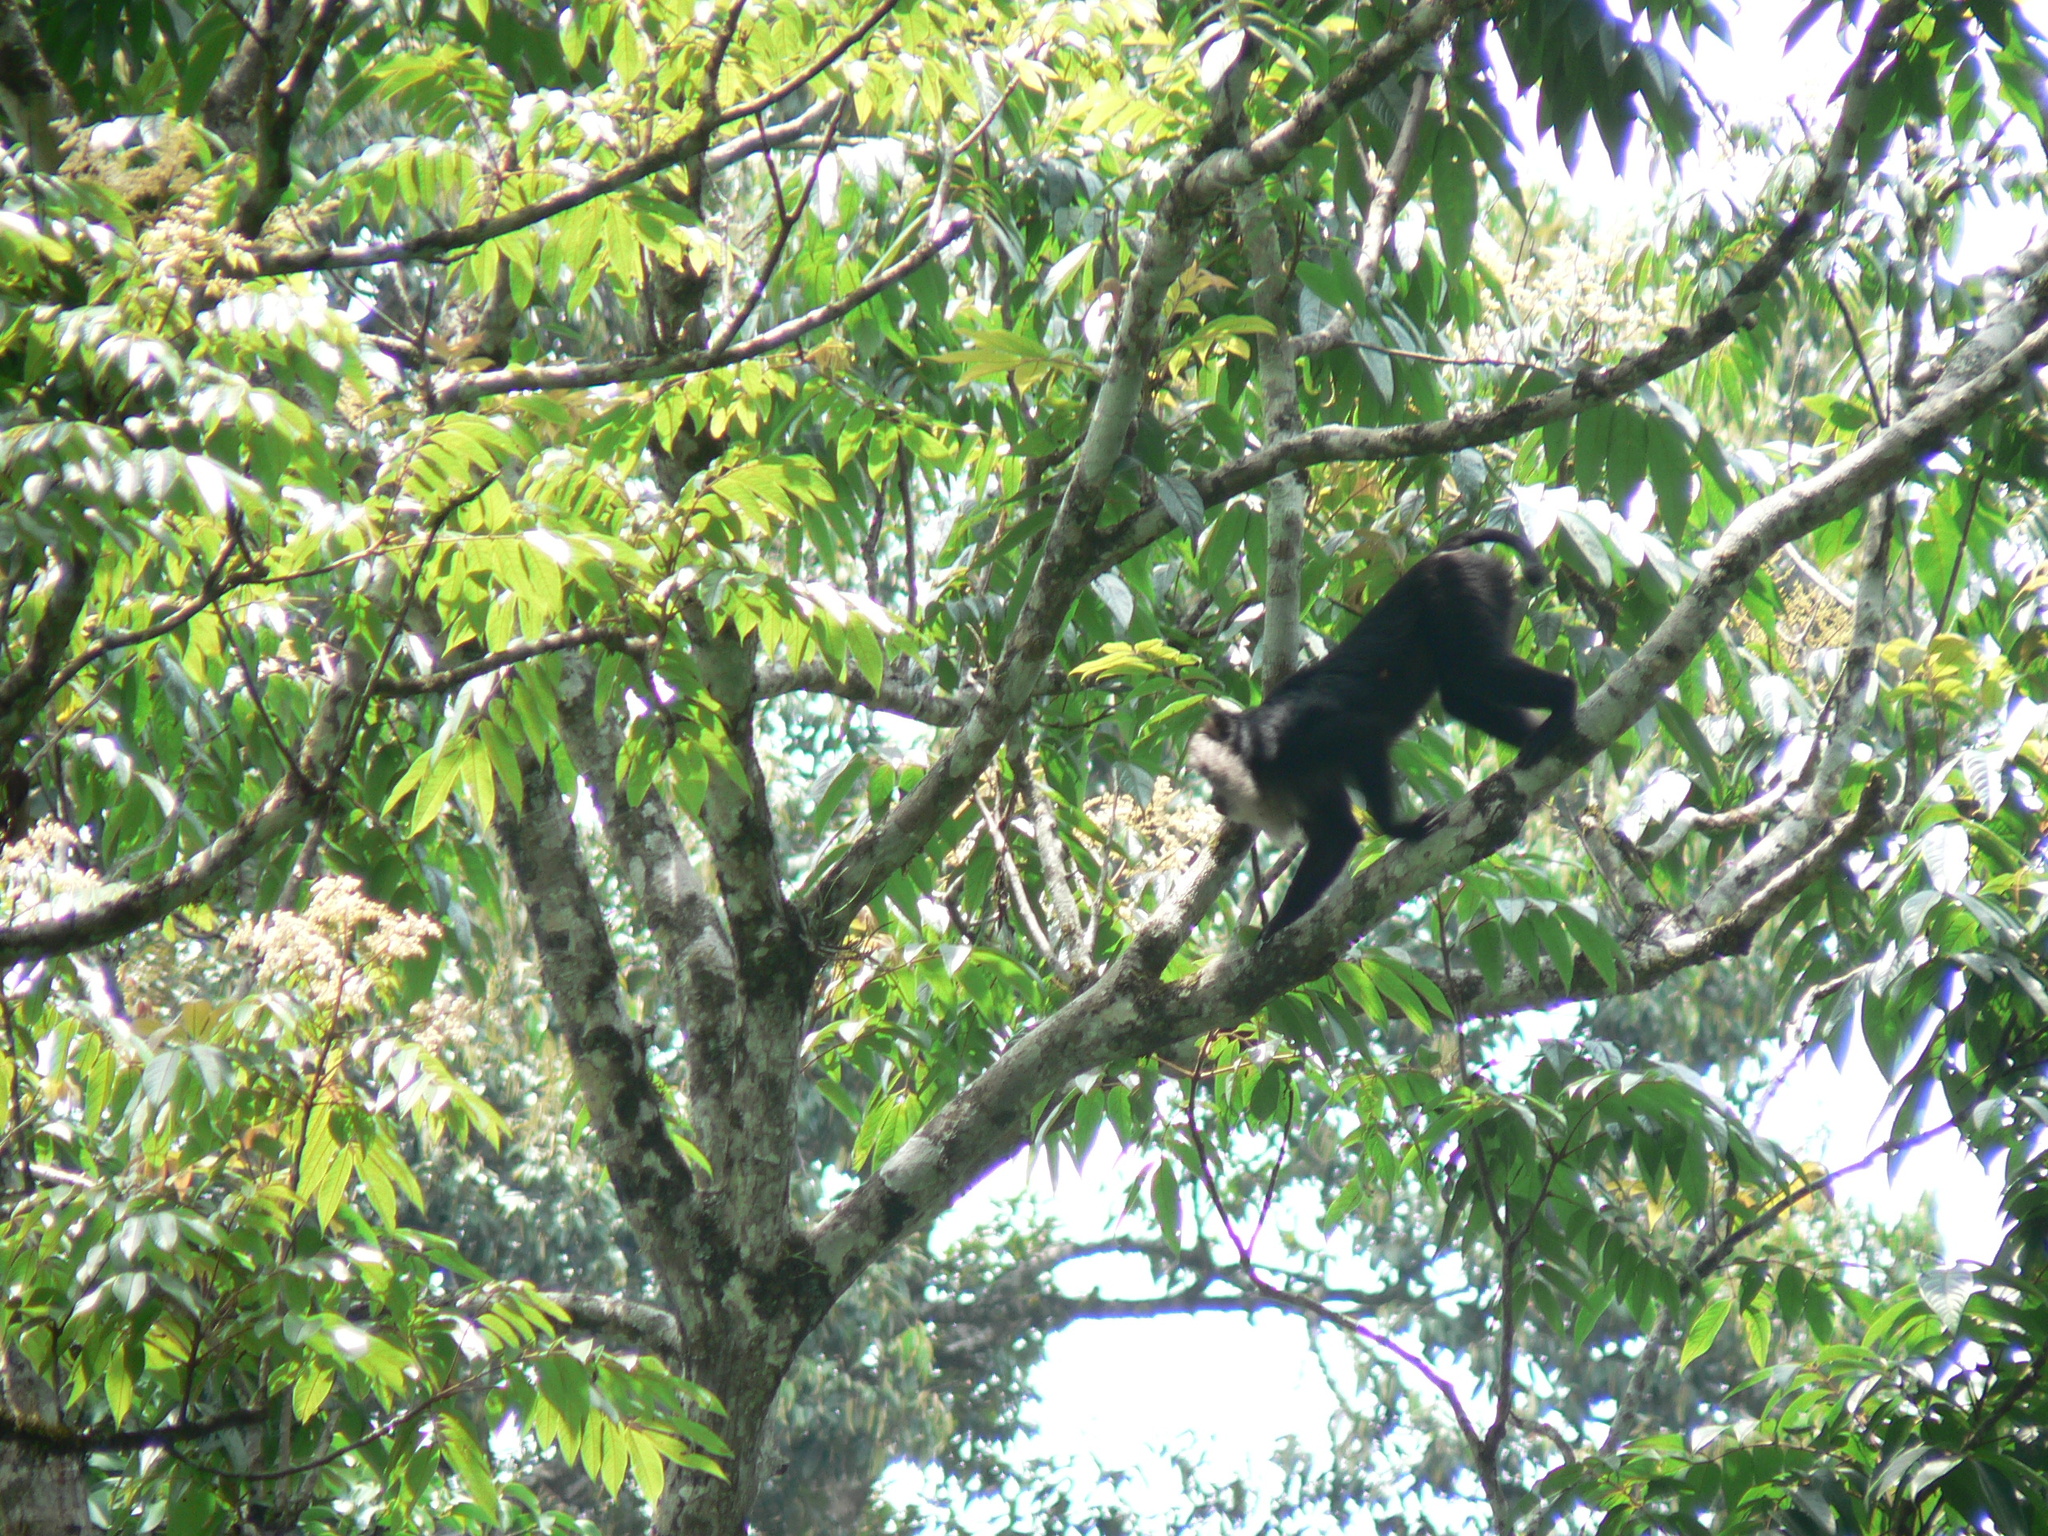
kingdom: Animalia
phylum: Chordata
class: Mammalia
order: Primates
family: Cercopithecidae
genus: Macaca
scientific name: Macaca silenus
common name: Lion-tailed macaque
